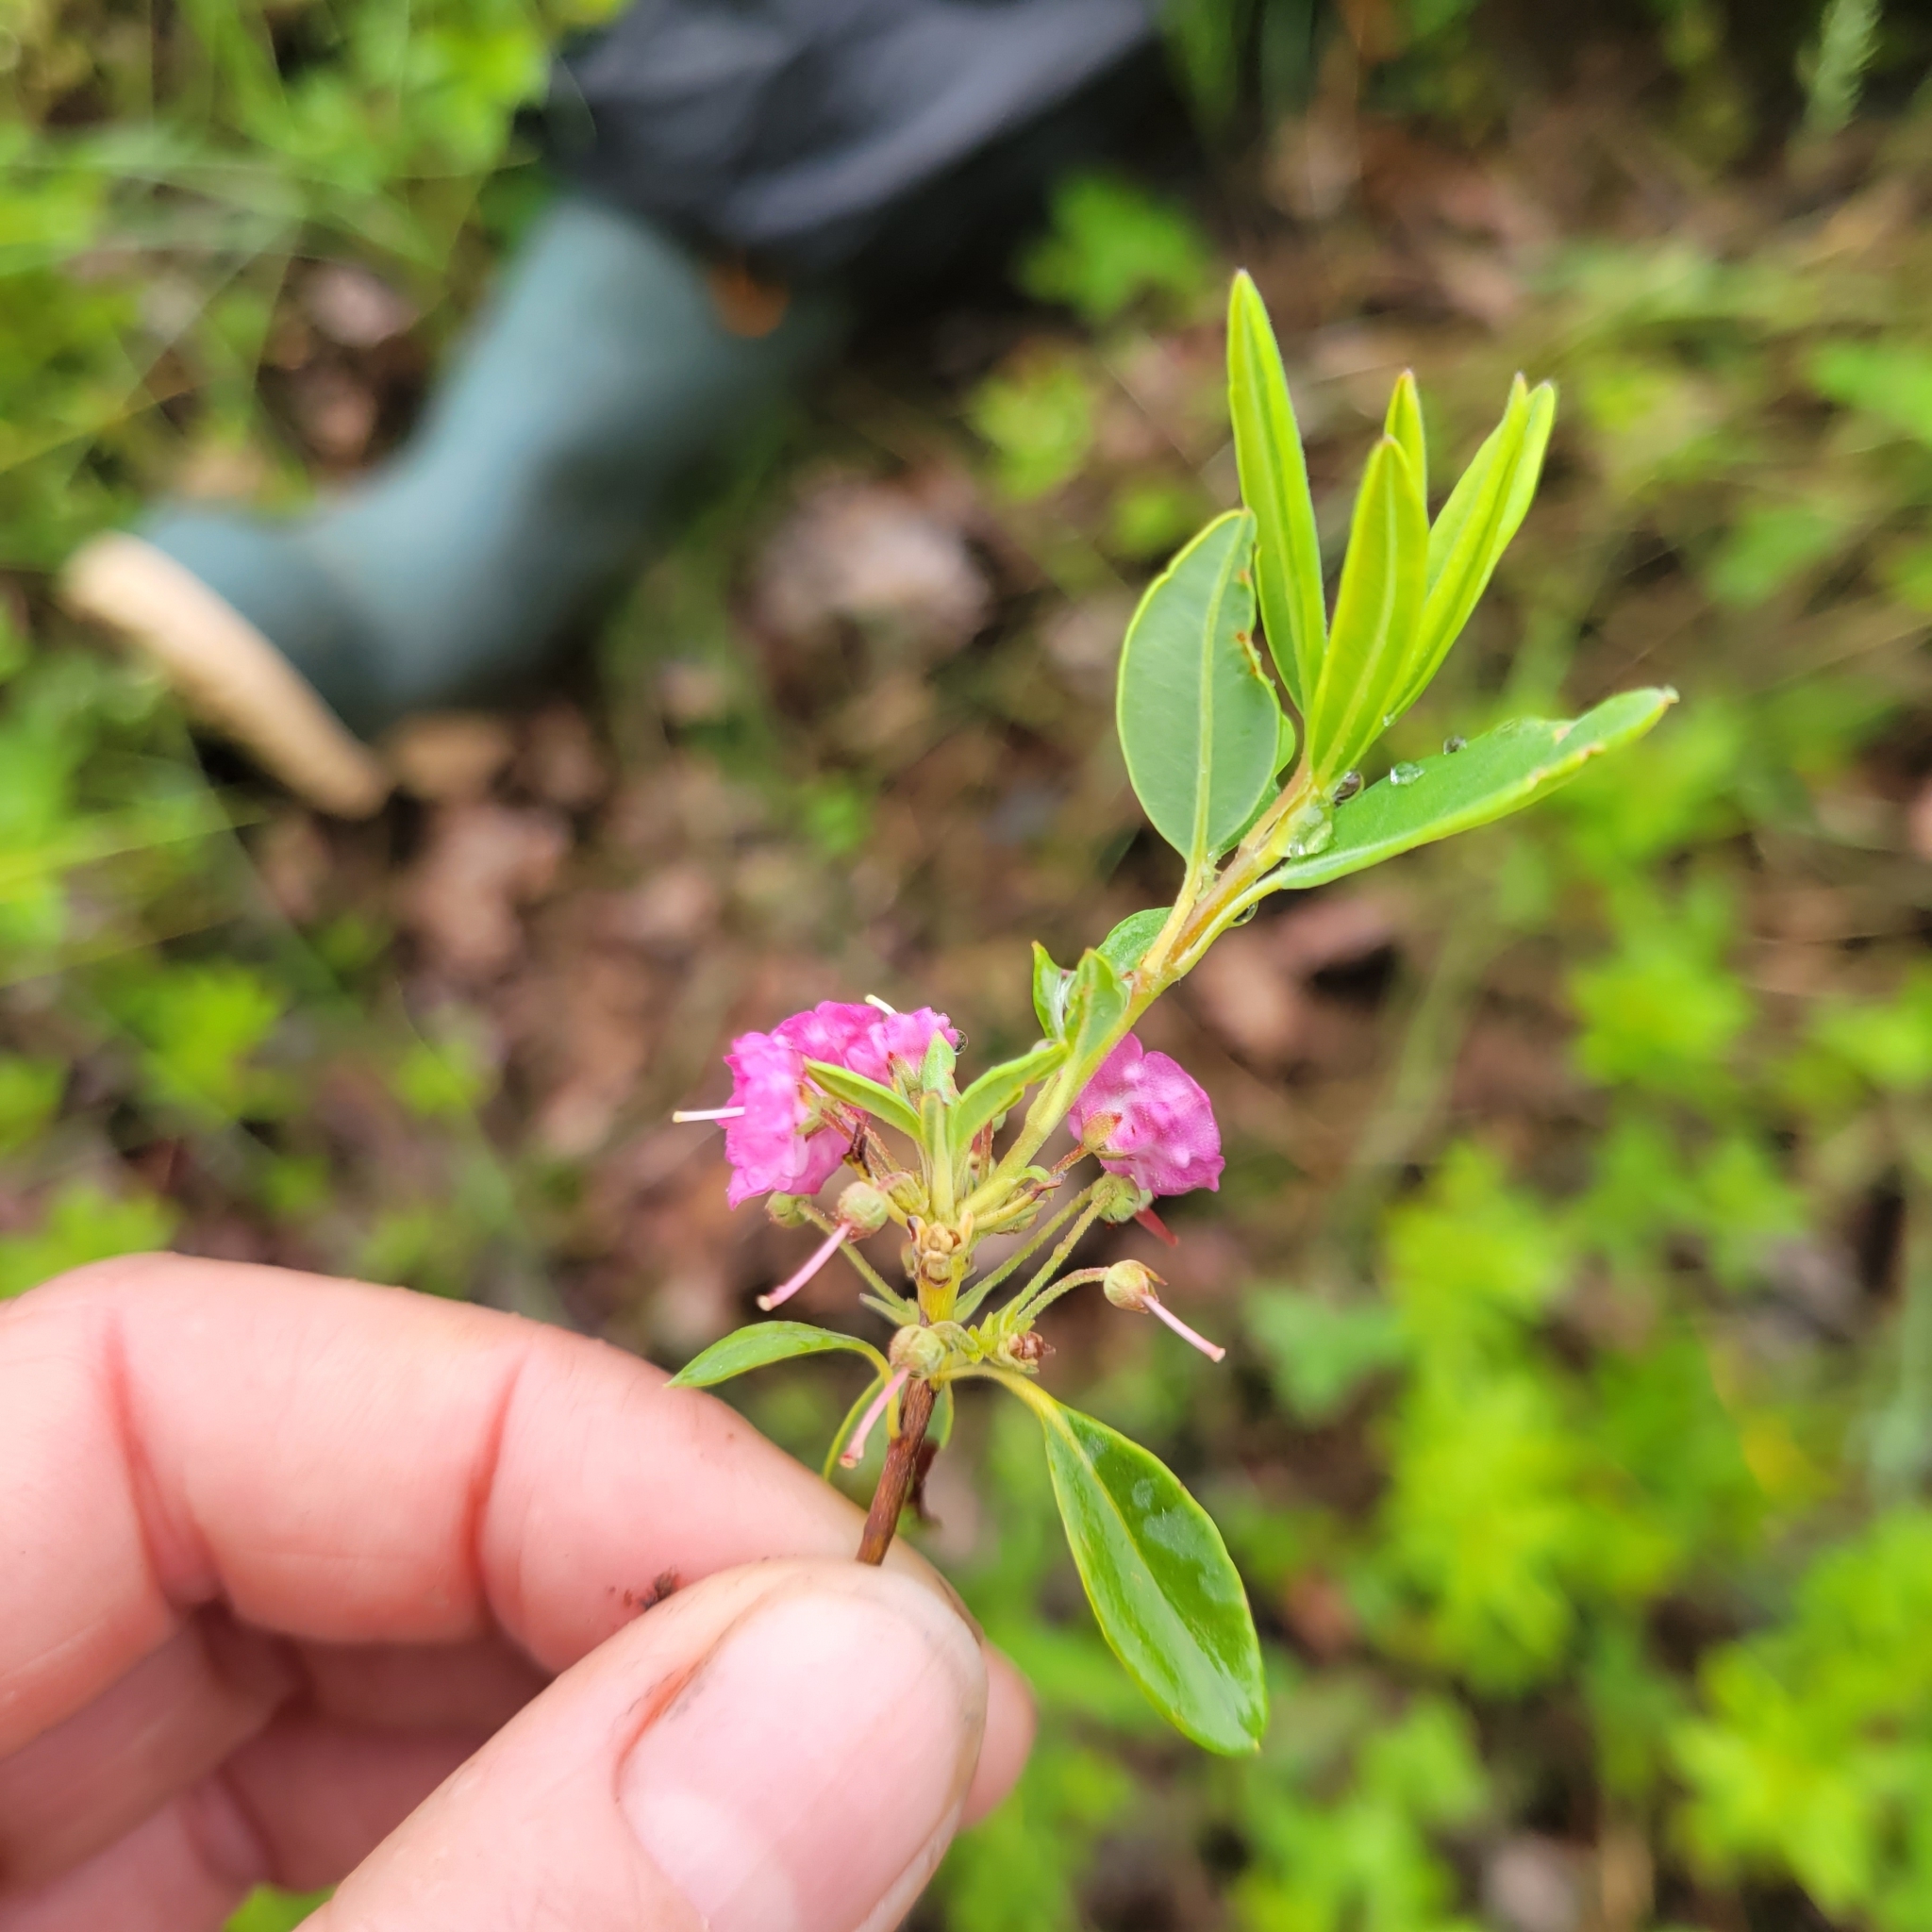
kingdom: Plantae
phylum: Tracheophyta
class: Magnoliopsida
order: Ericales
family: Ericaceae
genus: Kalmia
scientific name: Kalmia angustifolia
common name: Sheep-laurel
